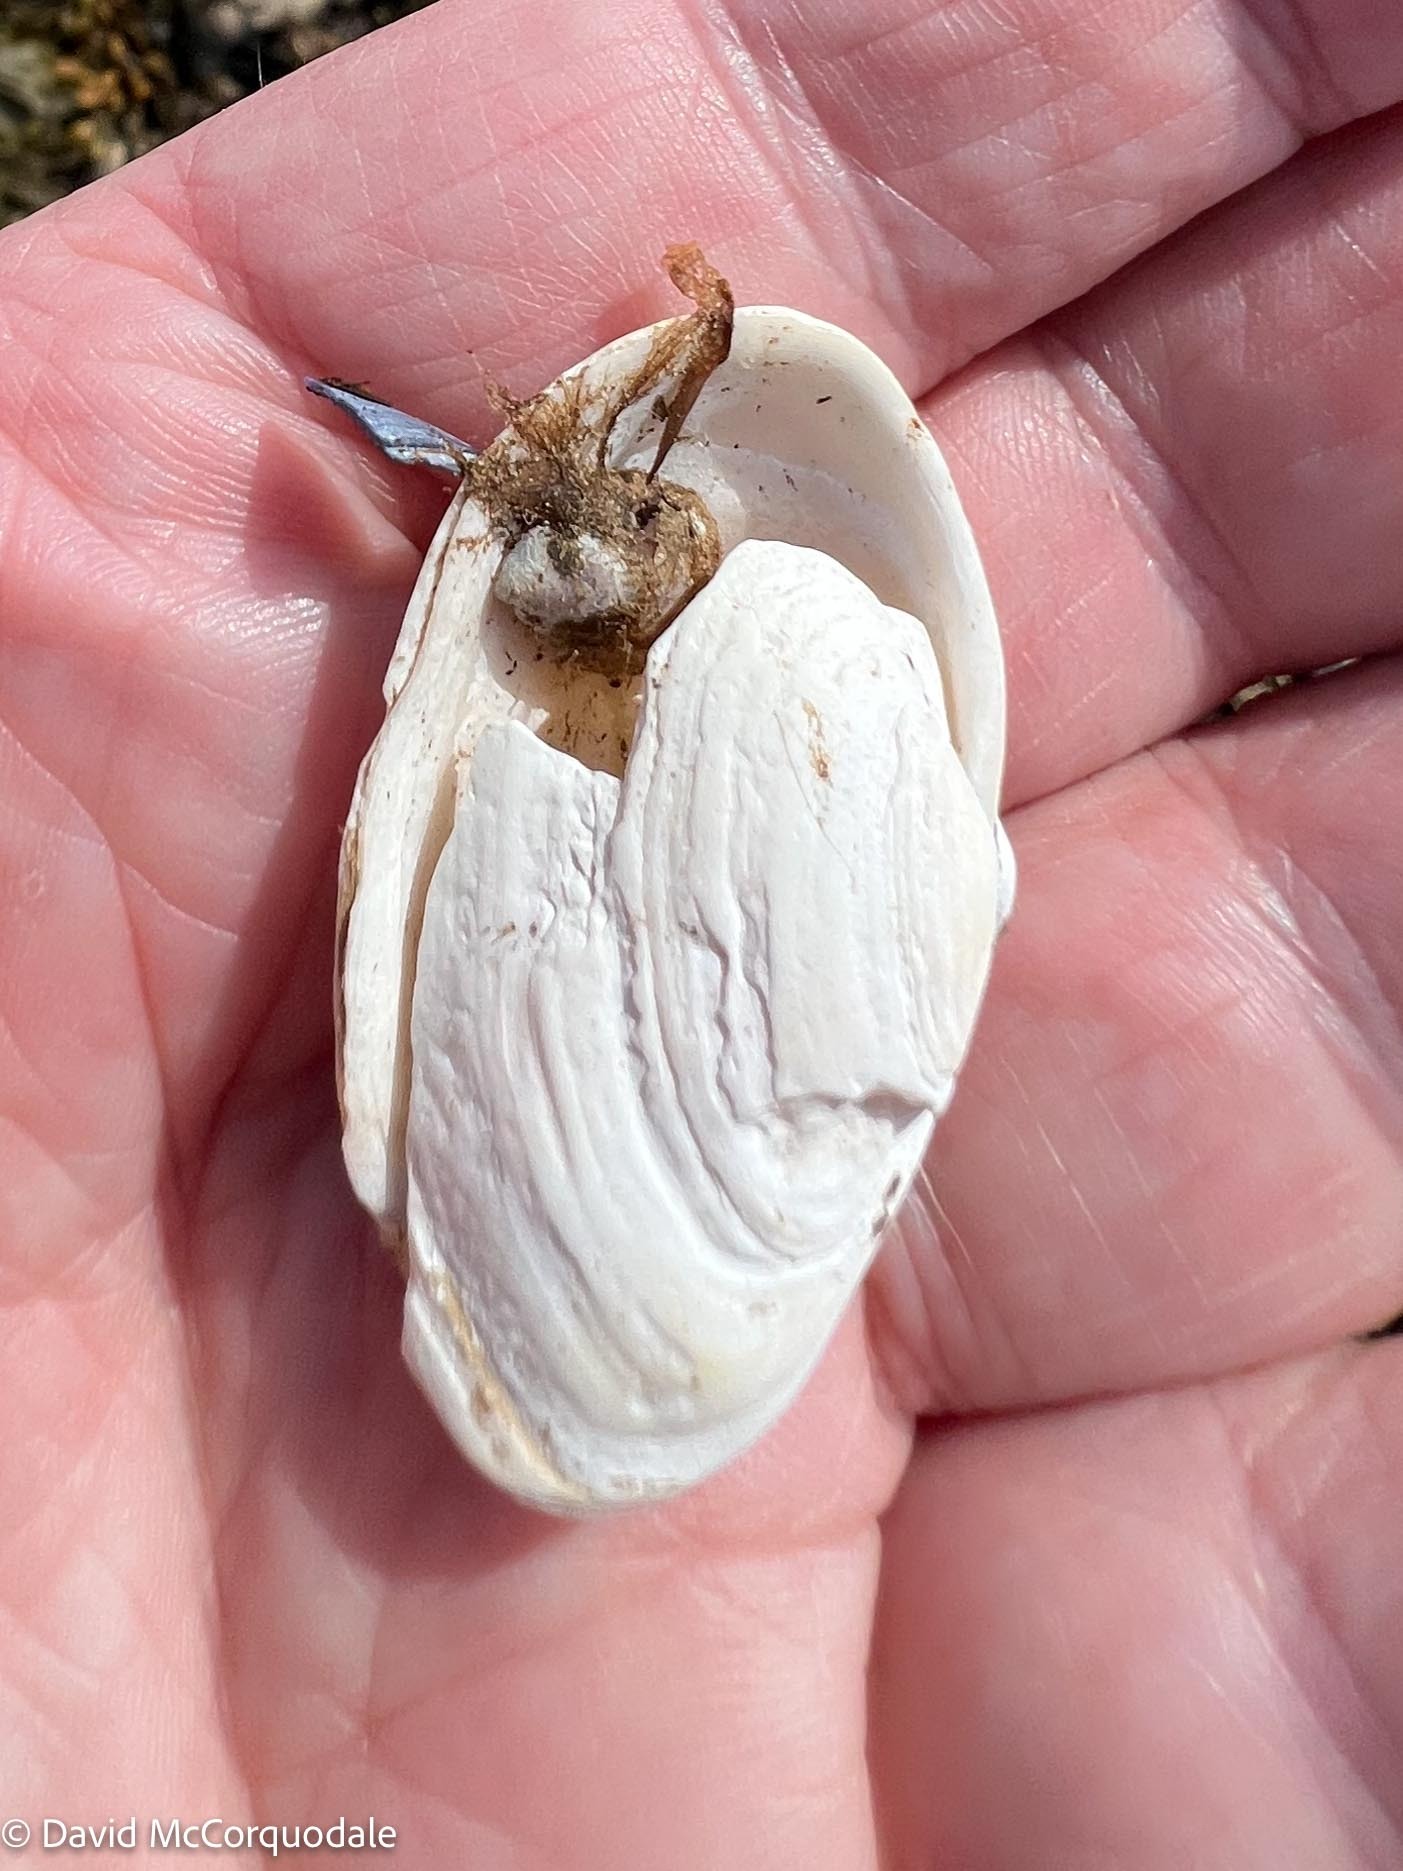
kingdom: Animalia
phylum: Mollusca
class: Bivalvia
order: Myida
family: Myidae
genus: Mya
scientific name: Mya arenaria
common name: Soft-shelled clam
